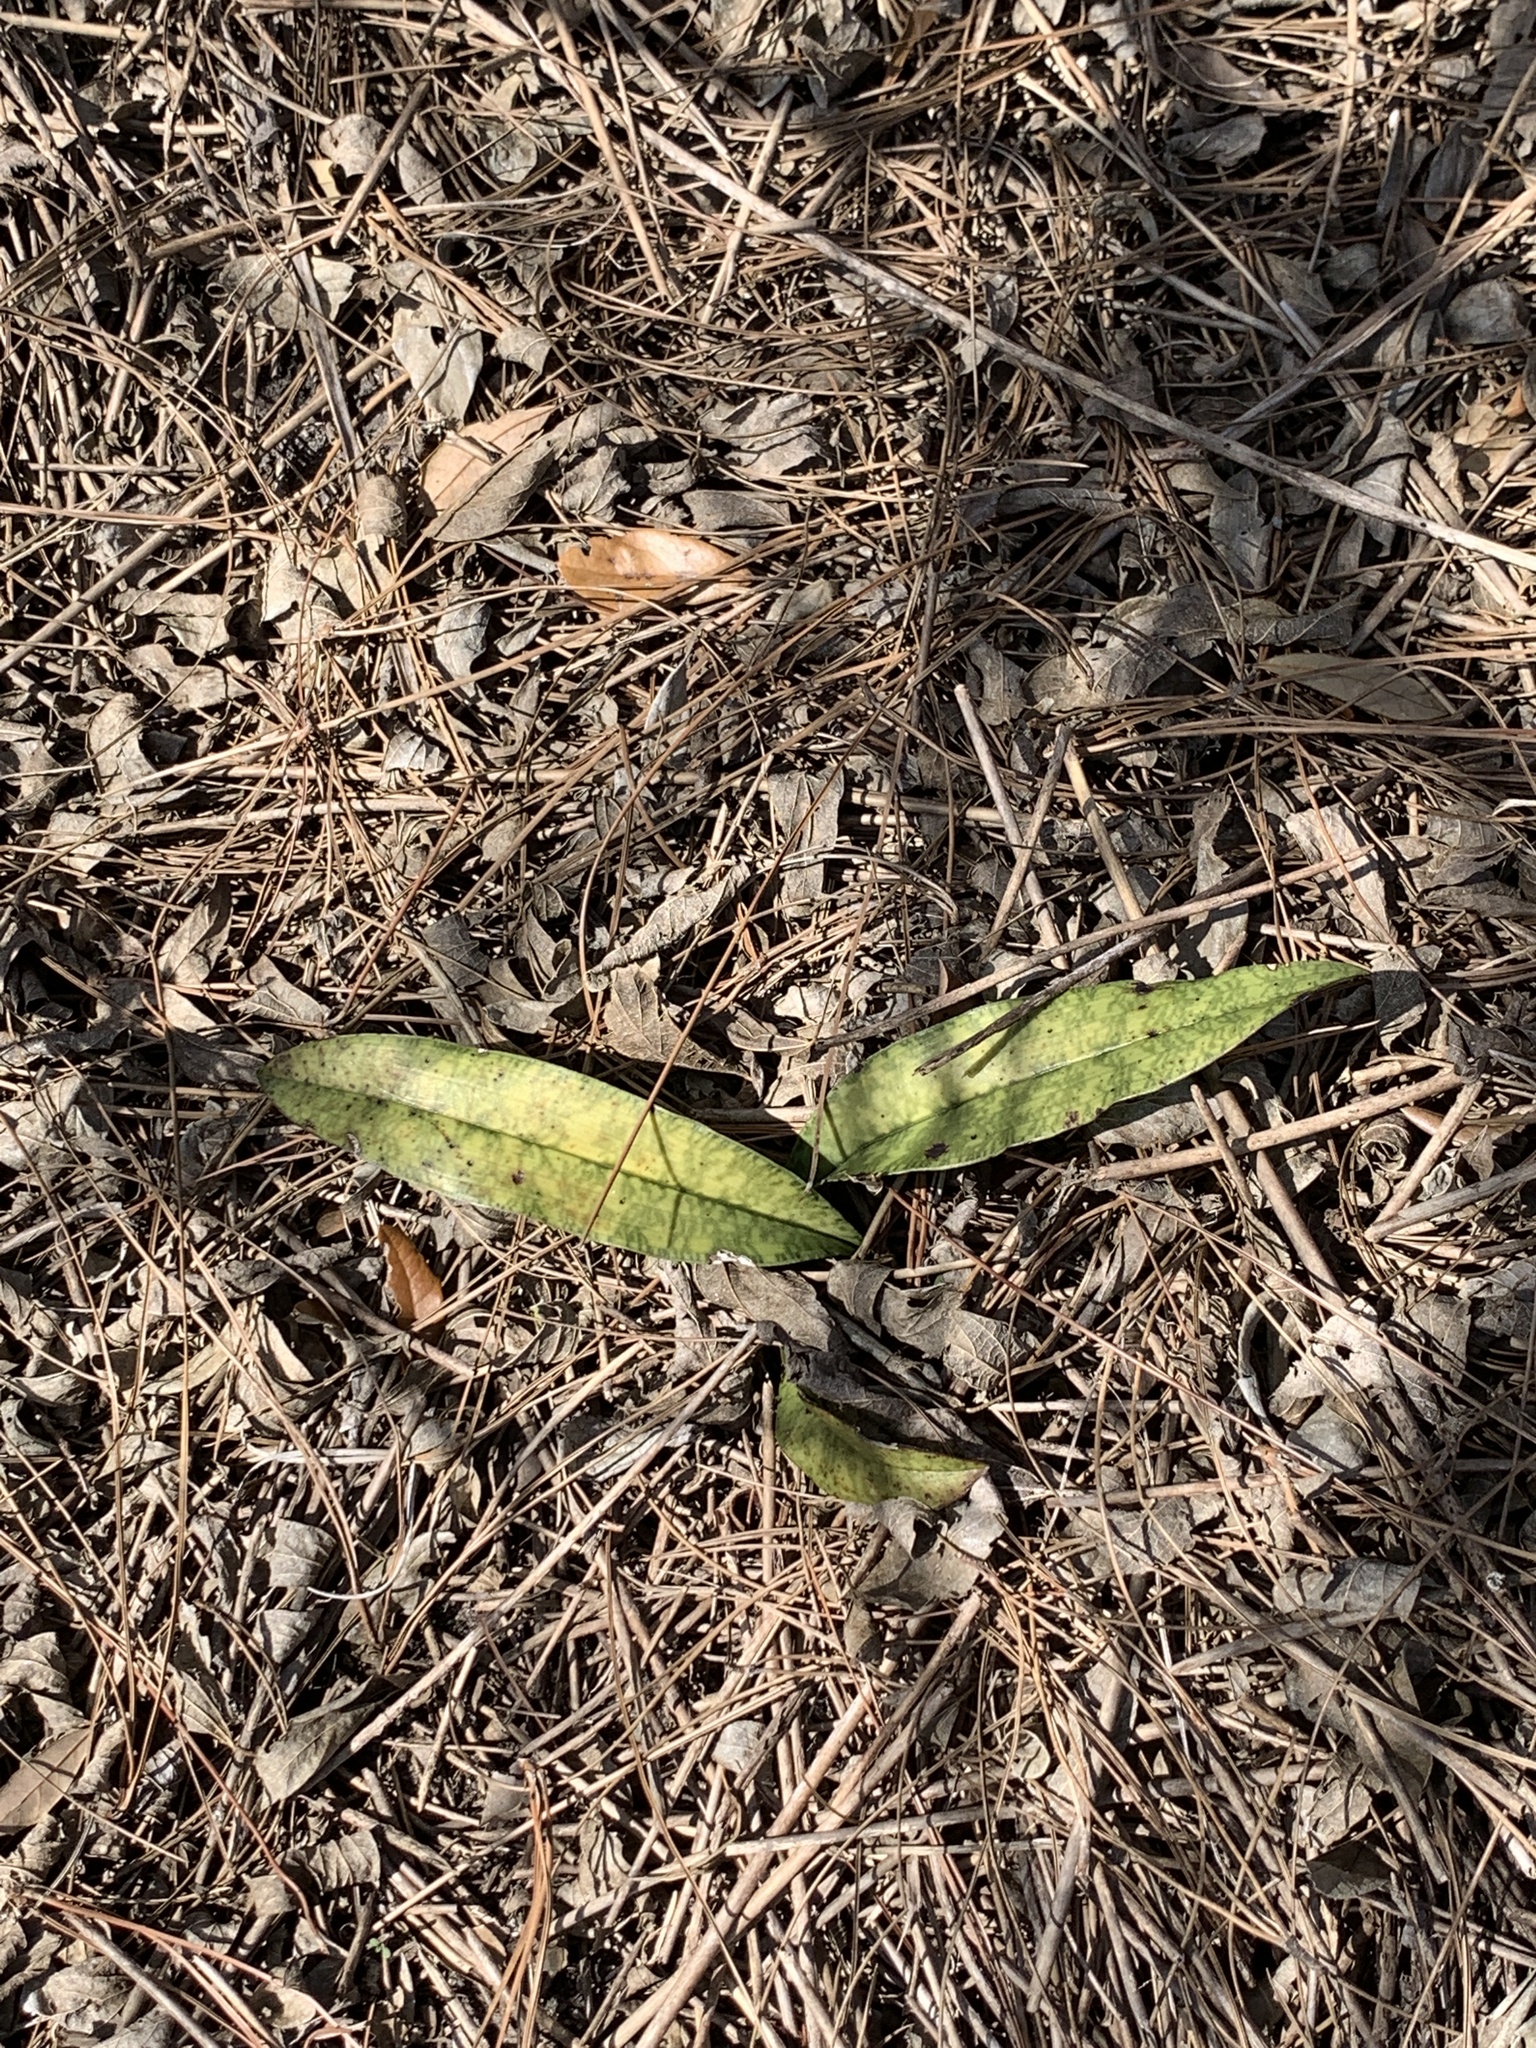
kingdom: Plantae
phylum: Tracheophyta
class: Liliopsida
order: Asparagales
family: Orchidaceae
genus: Eulophia
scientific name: Eulophia maculata
